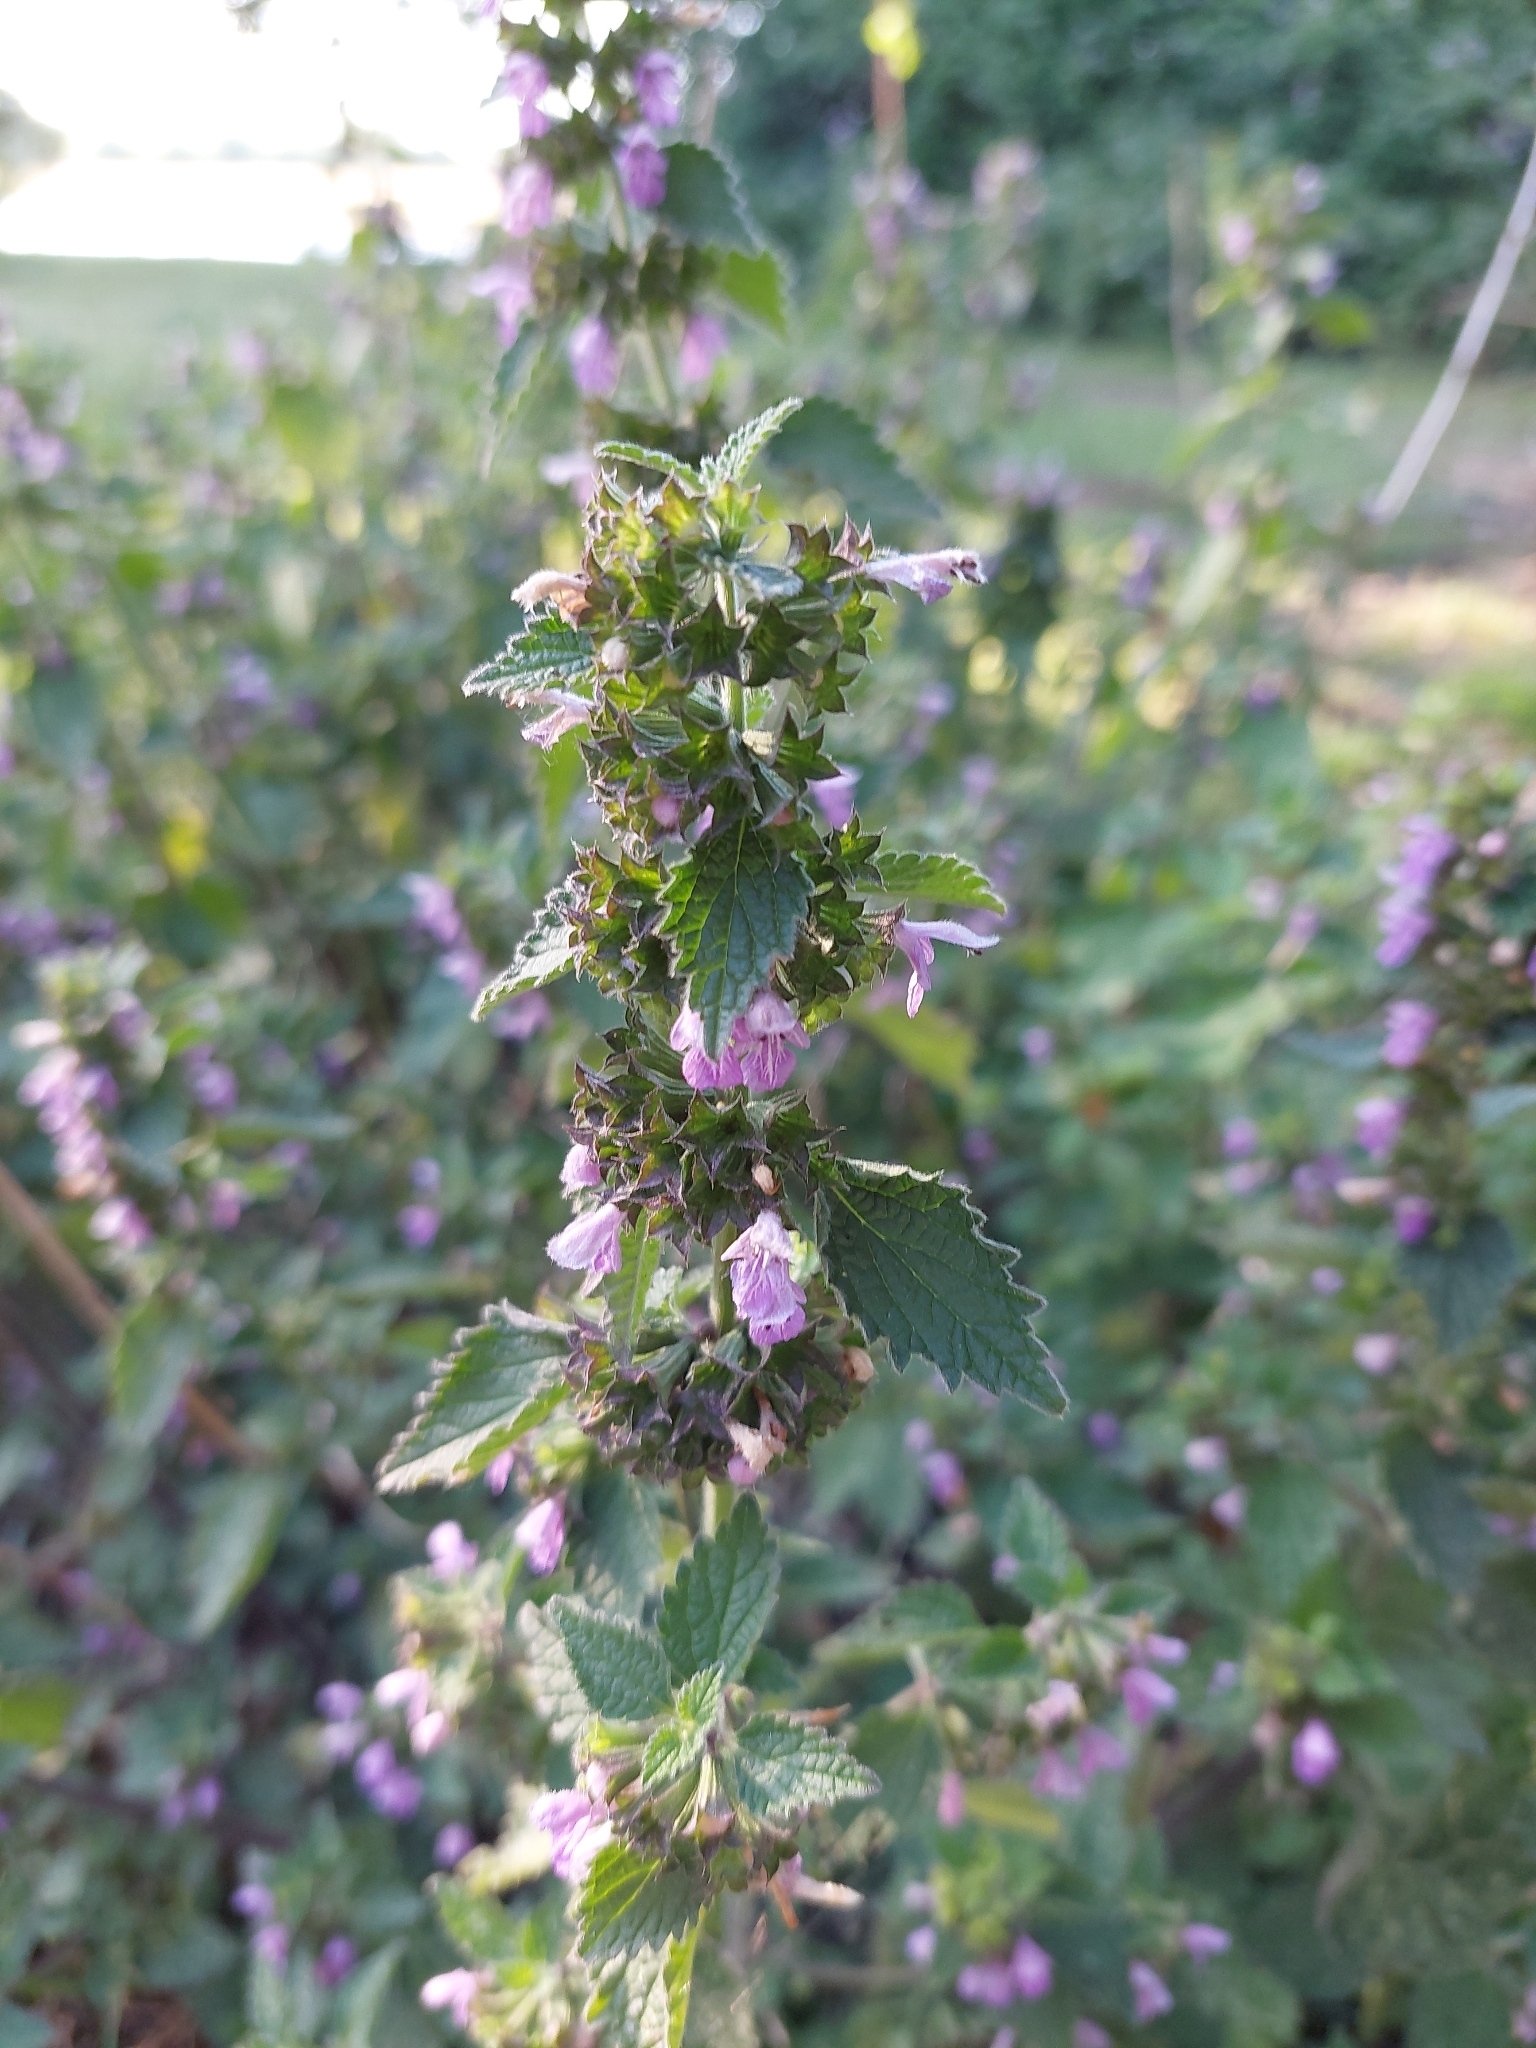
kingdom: Plantae
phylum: Tracheophyta
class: Magnoliopsida
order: Lamiales
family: Lamiaceae
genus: Ballota
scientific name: Ballota nigra
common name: Black horehound
